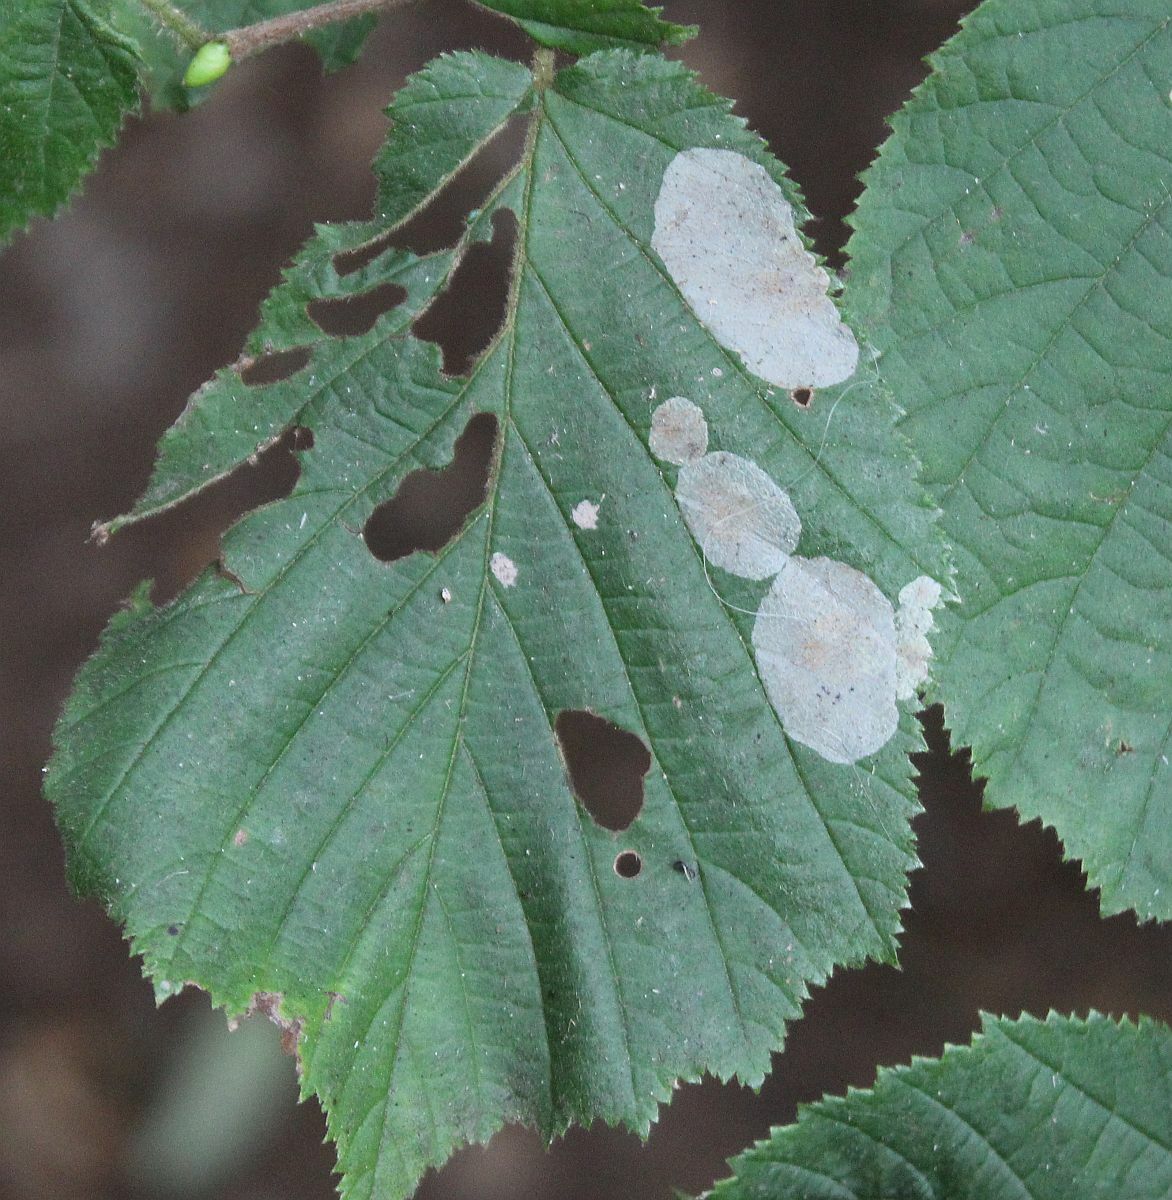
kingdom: Animalia
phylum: Arthropoda
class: Insecta
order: Lepidoptera
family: Gracillariidae
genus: Phyllonorycter
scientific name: Phyllonorycter coryli
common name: Nut-leaf blister moth
